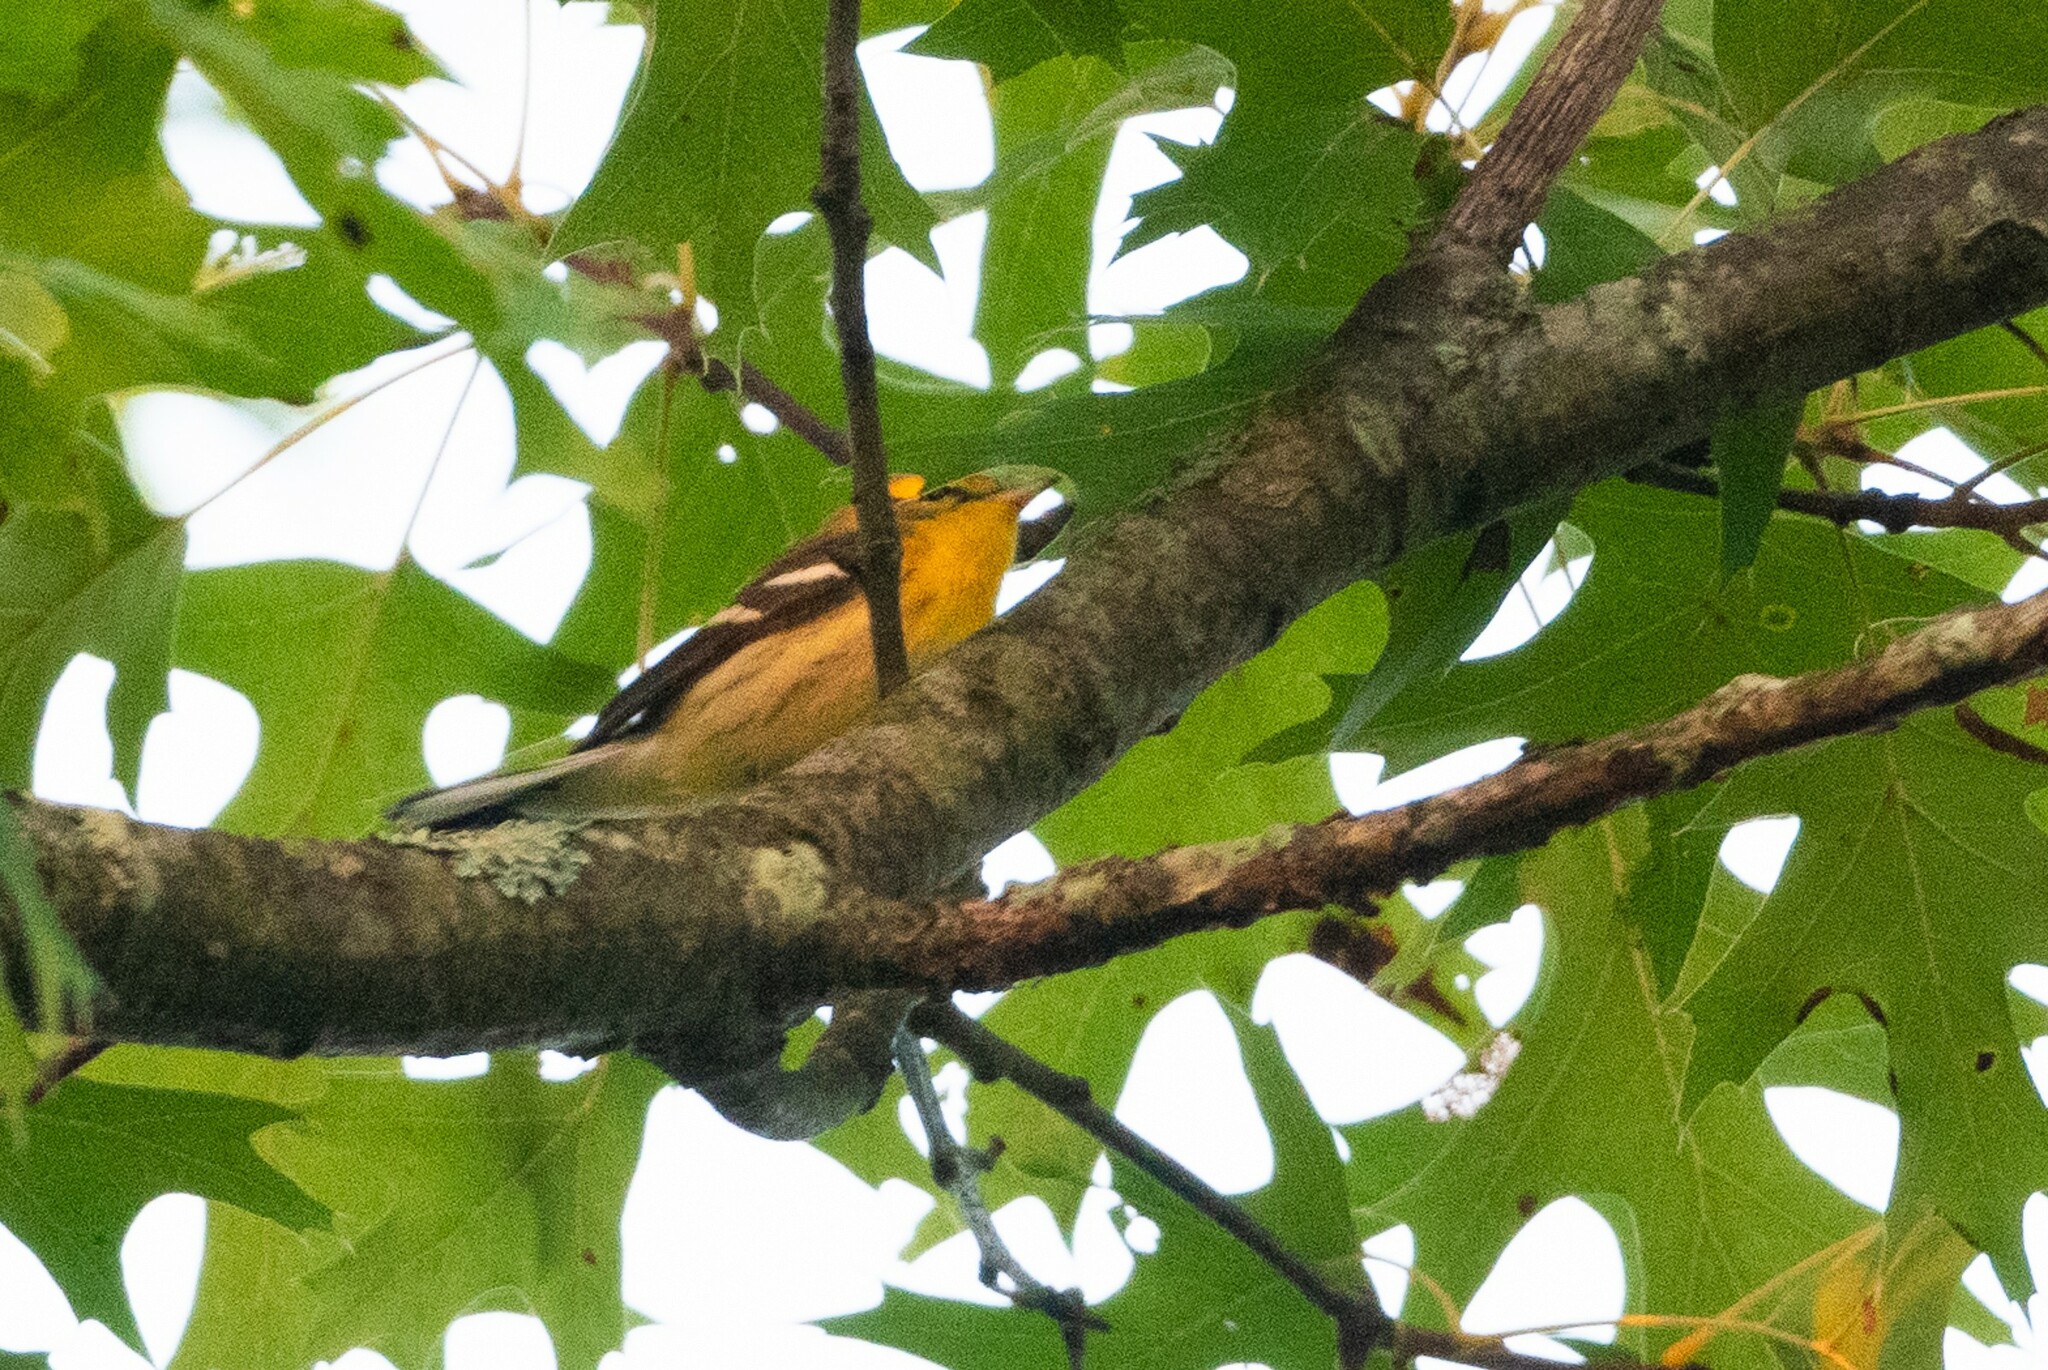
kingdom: Animalia
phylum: Chordata
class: Aves
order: Passeriformes
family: Parulidae
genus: Setophaga
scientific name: Setophaga fusca
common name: Blackburnian warbler
